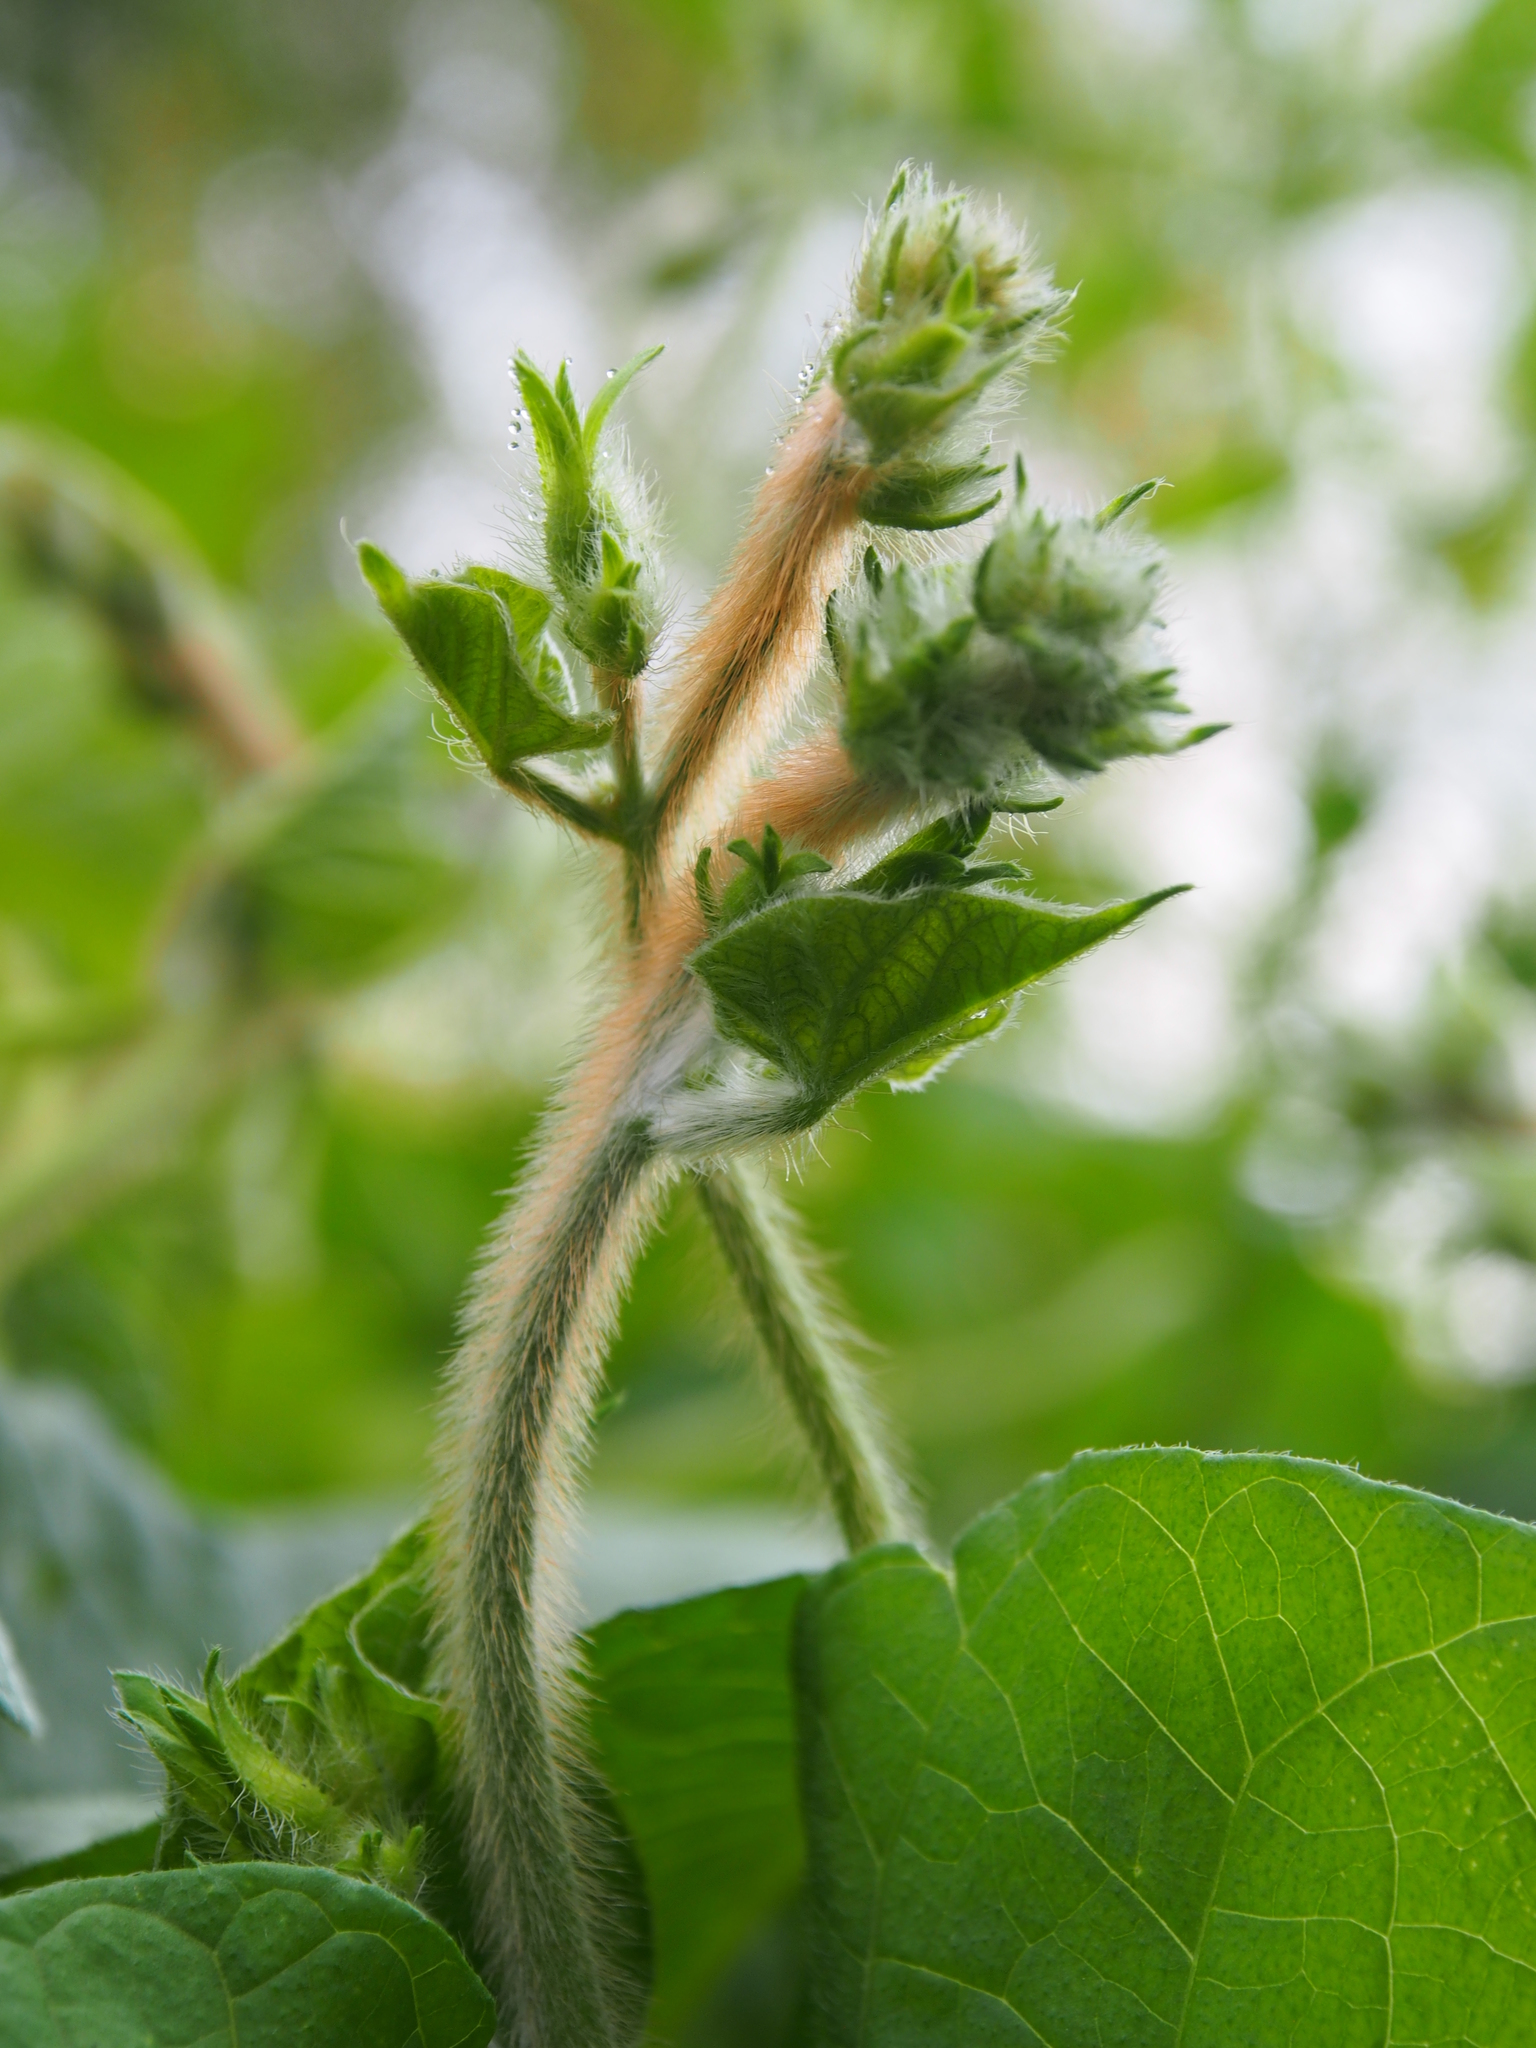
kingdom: Plantae
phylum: Tracheophyta
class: Magnoliopsida
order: Solanales
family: Convolvulaceae
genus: Ipomoea
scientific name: Ipomoea purpurea
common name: Common morning-glory
